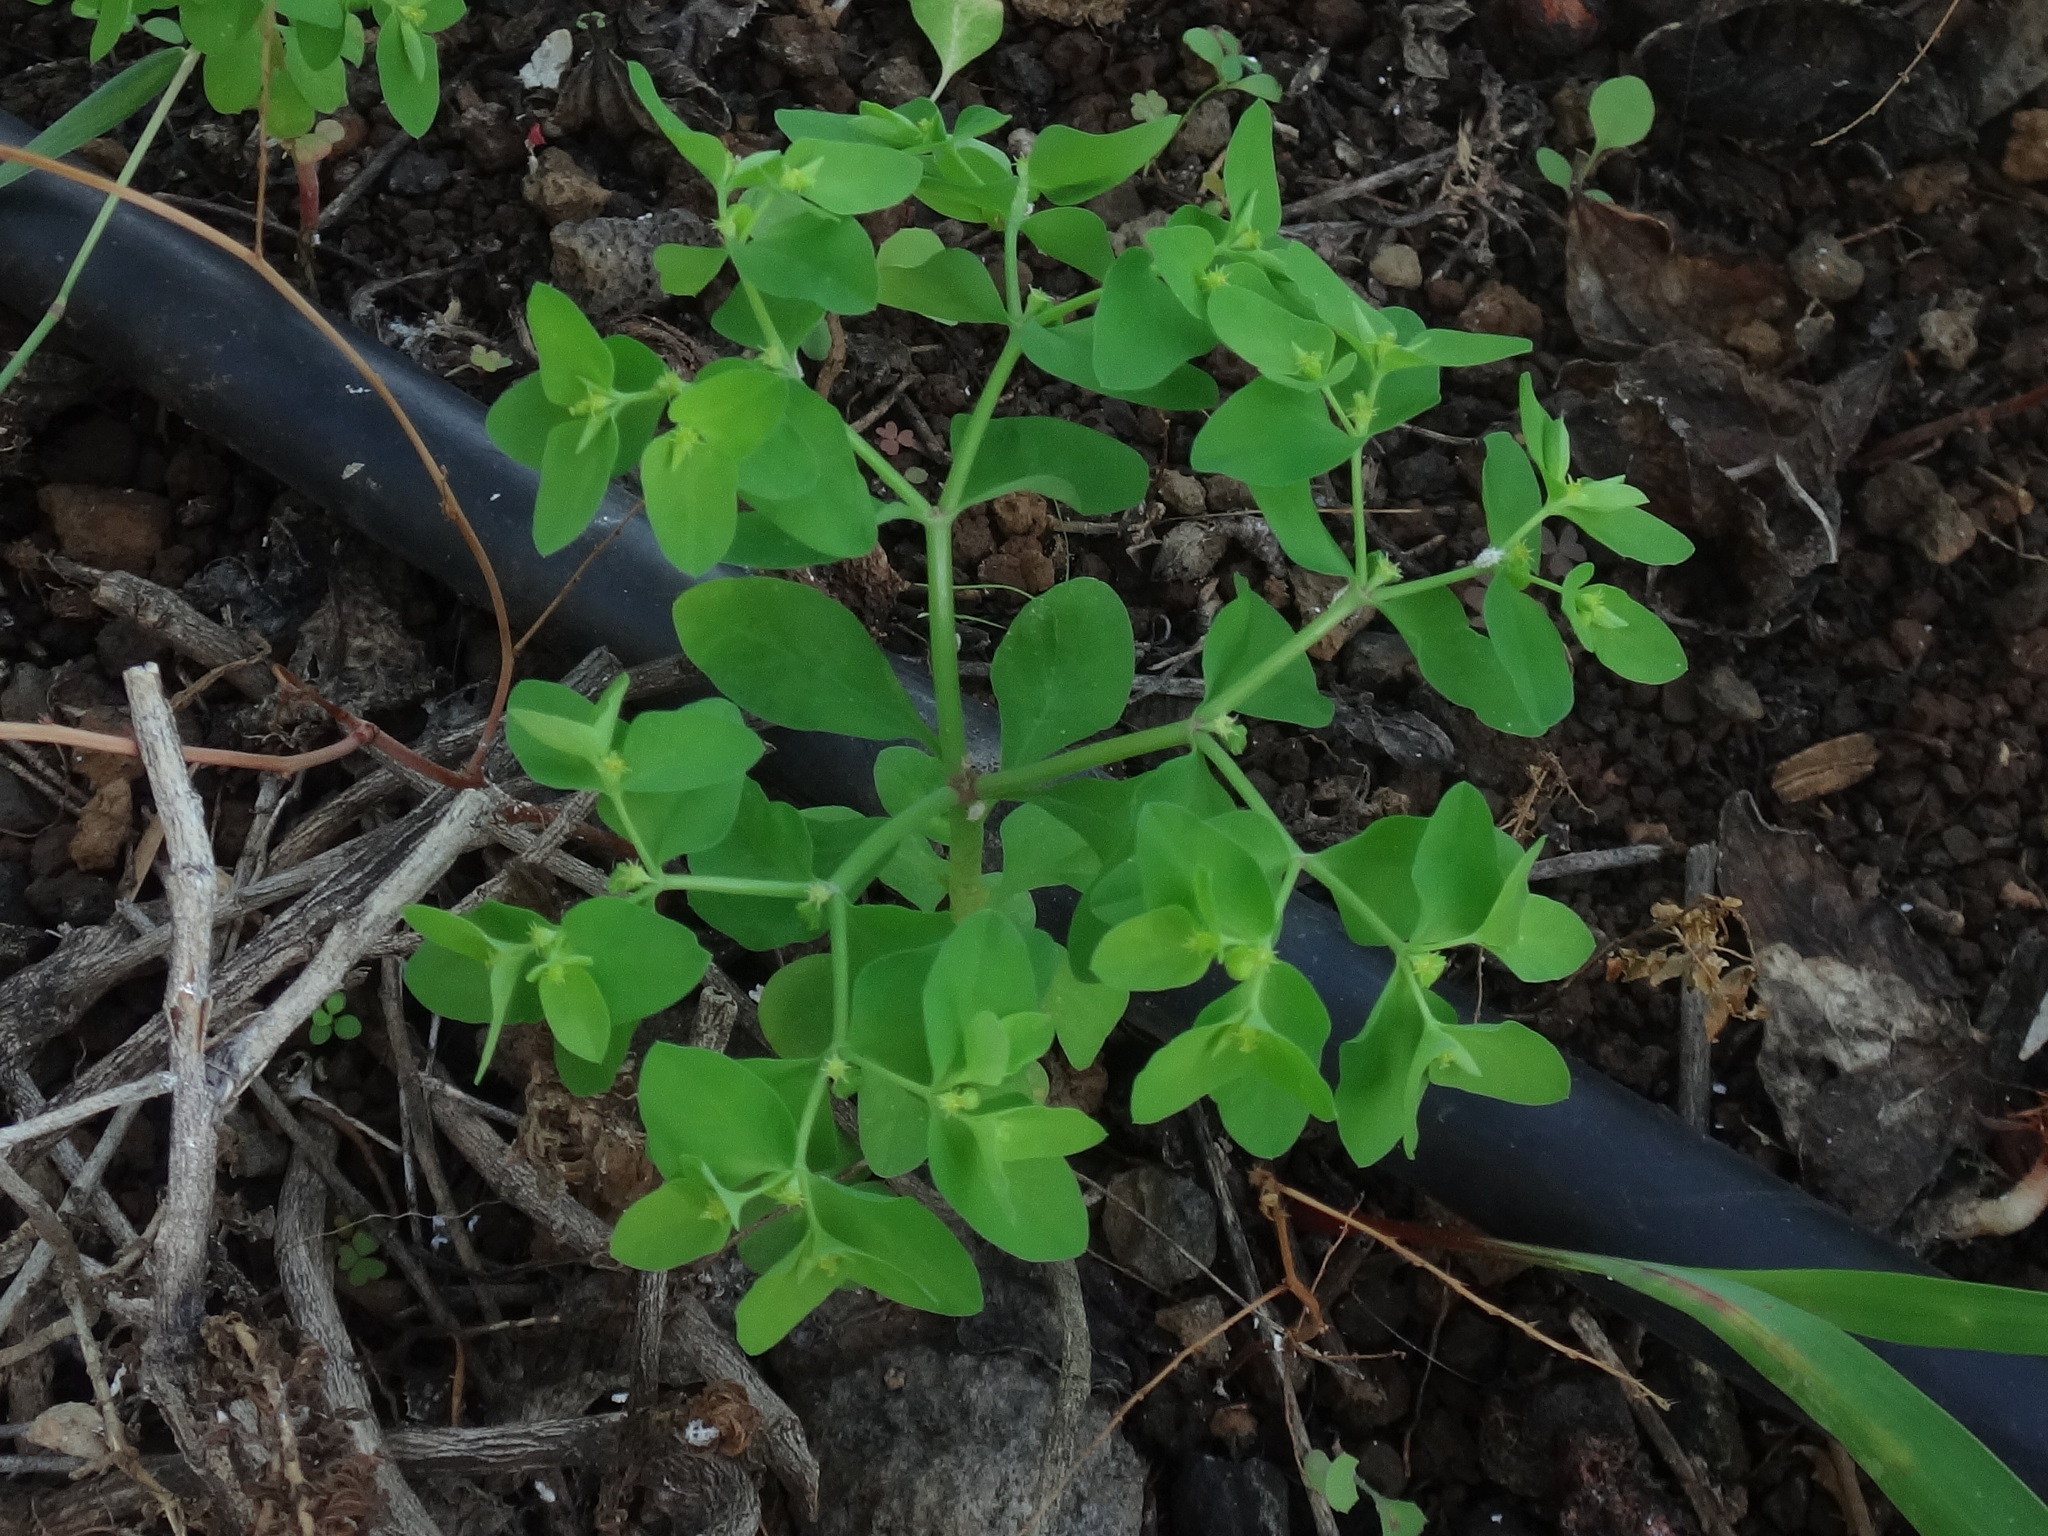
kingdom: Plantae
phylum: Tracheophyta
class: Magnoliopsida
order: Malpighiales
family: Euphorbiaceae
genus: Euphorbia
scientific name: Euphorbia peplus
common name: Petty spurge
